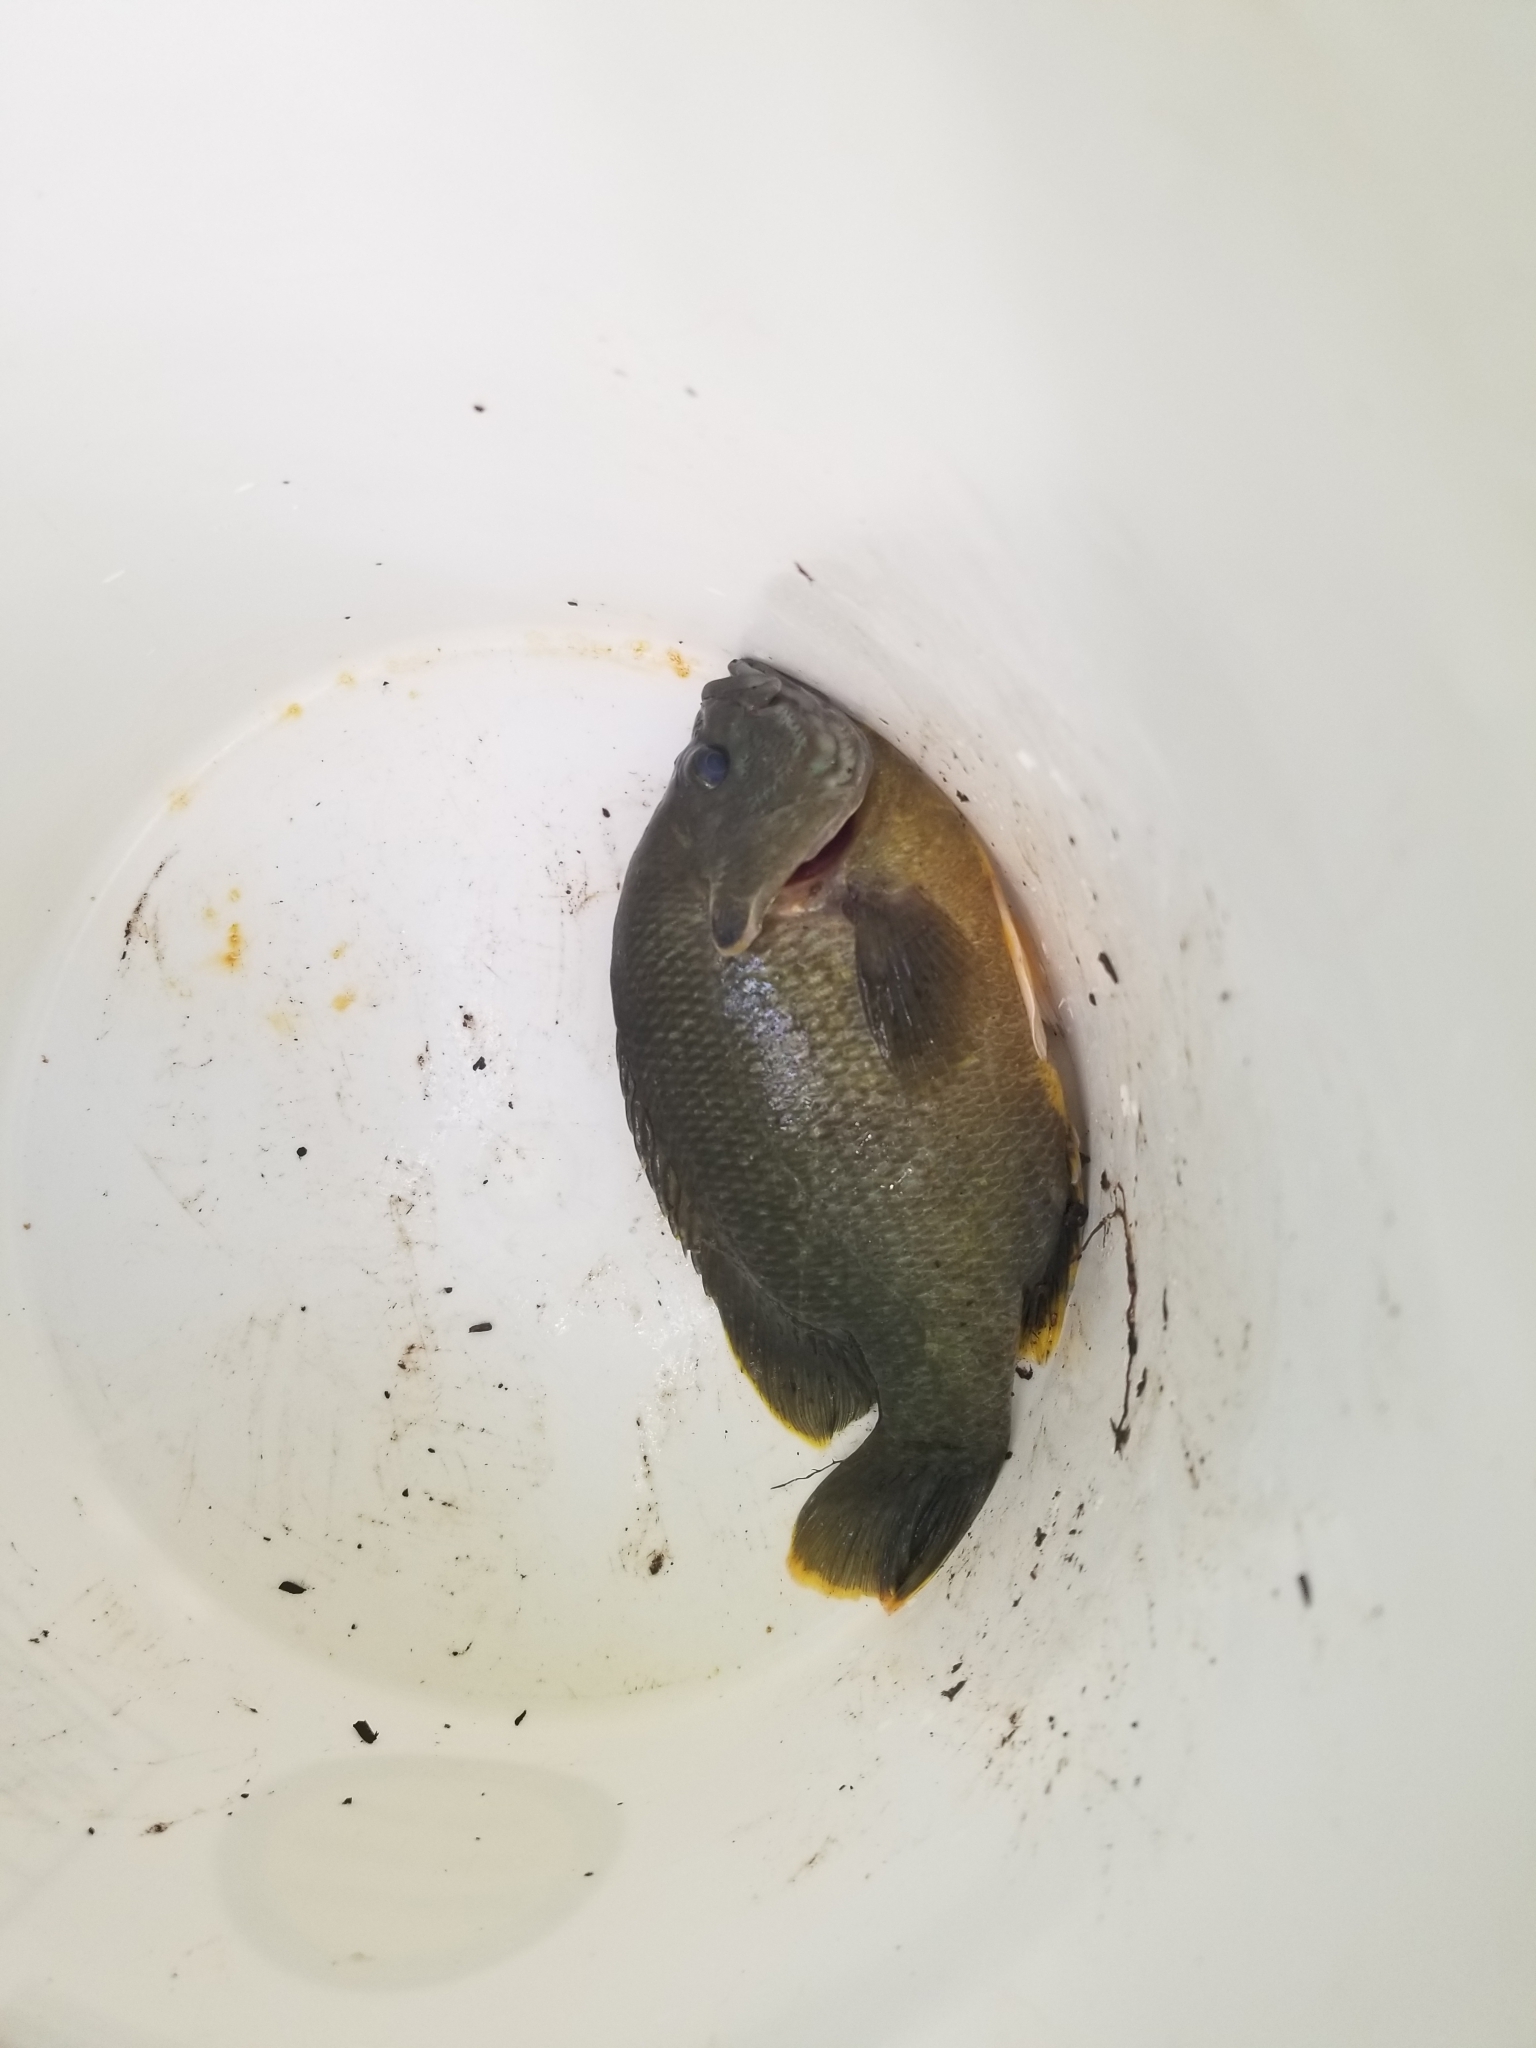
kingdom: Animalia
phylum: Chordata
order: Perciformes
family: Centrarchidae
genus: Lepomis
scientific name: Lepomis
